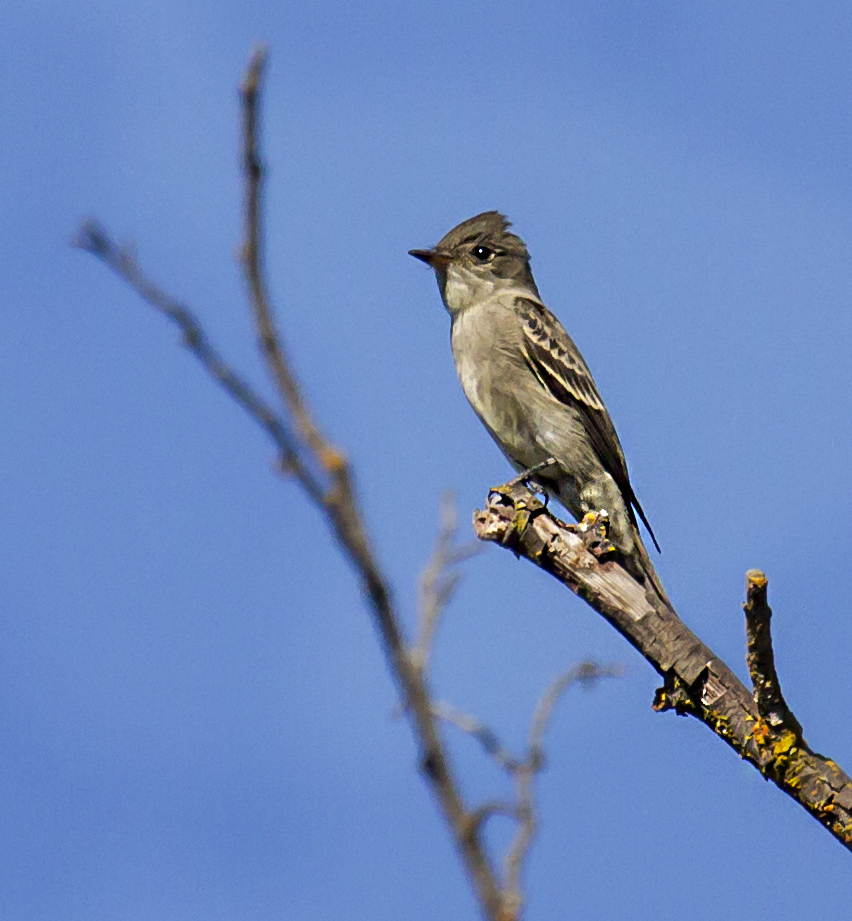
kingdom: Animalia
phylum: Chordata
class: Aves
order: Passeriformes
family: Tyrannidae
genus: Contopus
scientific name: Contopus sordidulus
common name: Western wood-pewee
